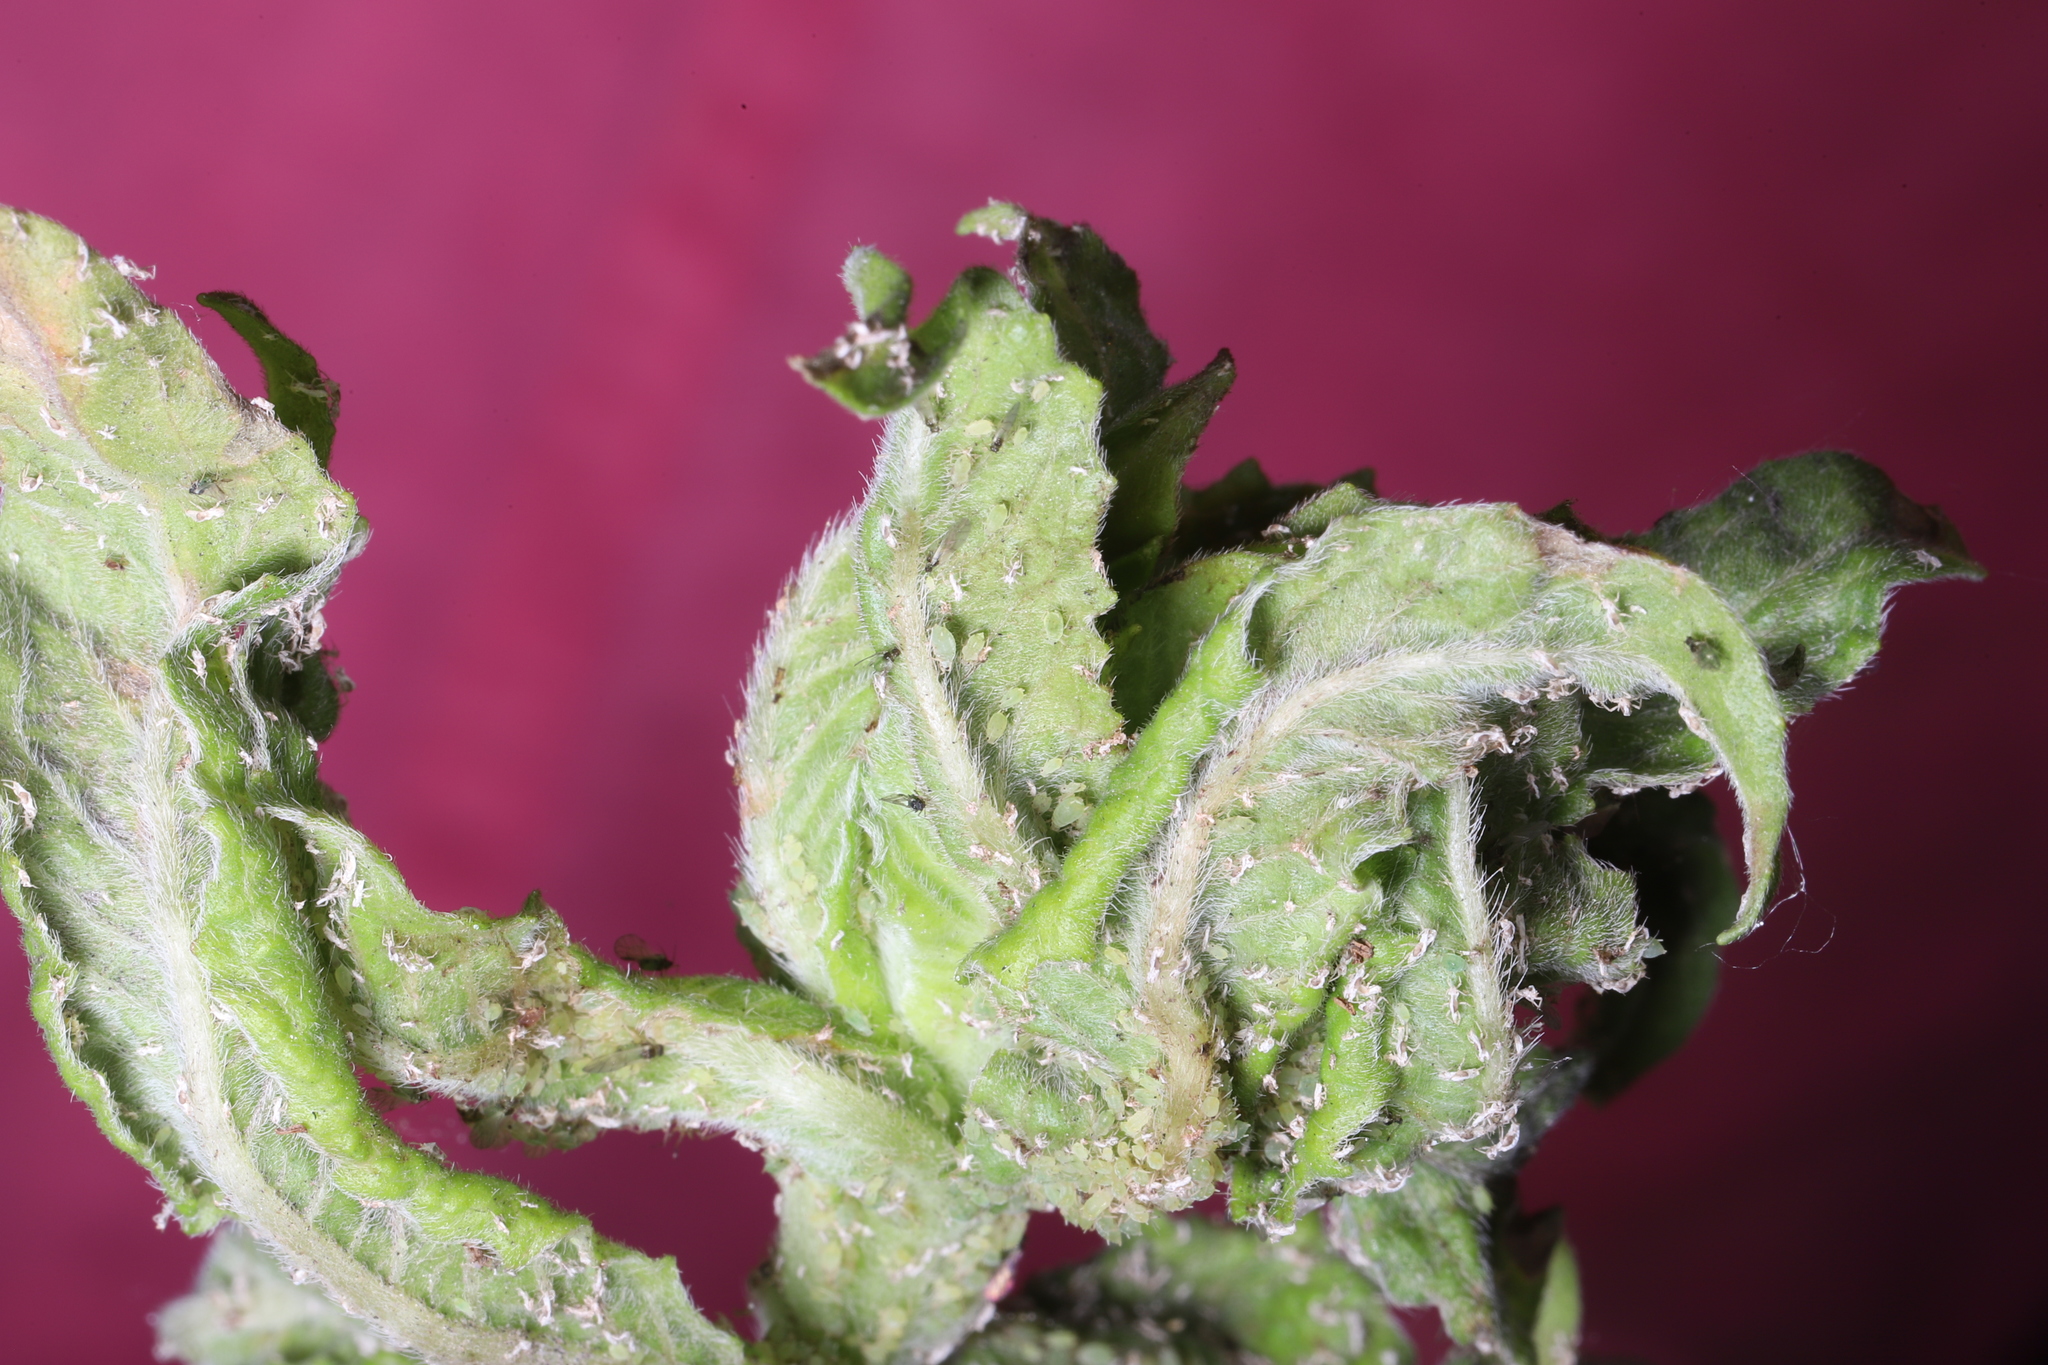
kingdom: Animalia
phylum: Arthropoda
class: Insecta
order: Hemiptera
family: Aphididae
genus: Aphis
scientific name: Aphis oenotherae
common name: Evening primrose aphid
